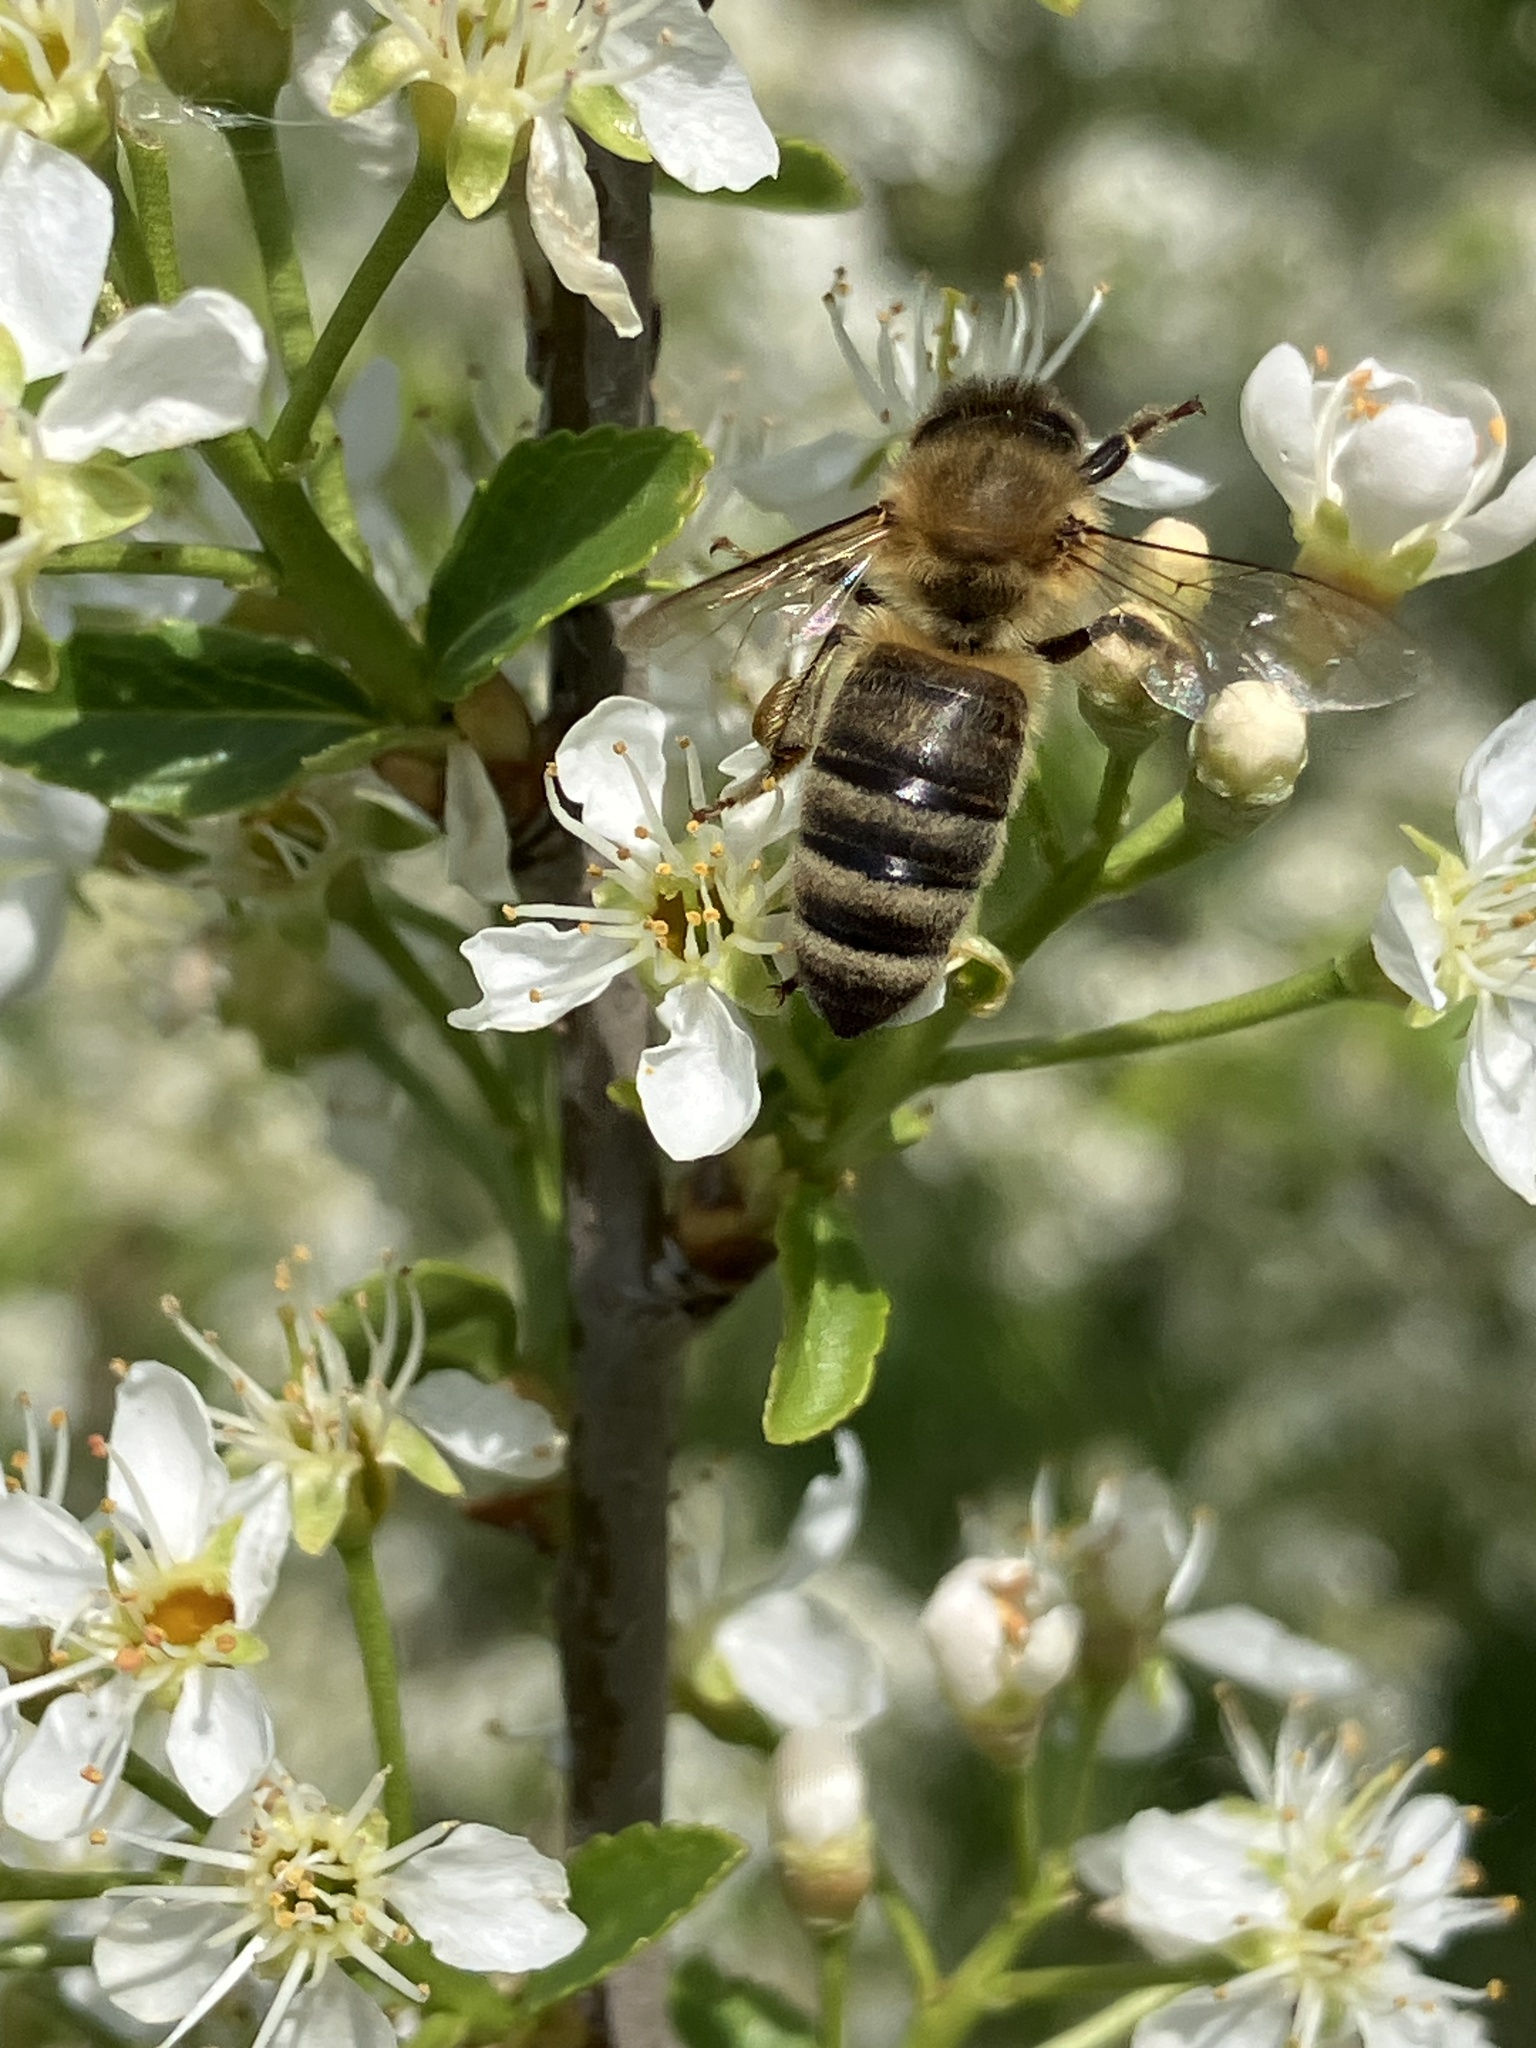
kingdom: Animalia
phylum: Arthropoda
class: Insecta
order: Hymenoptera
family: Apidae
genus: Apis
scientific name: Apis mellifera
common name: Honey bee
